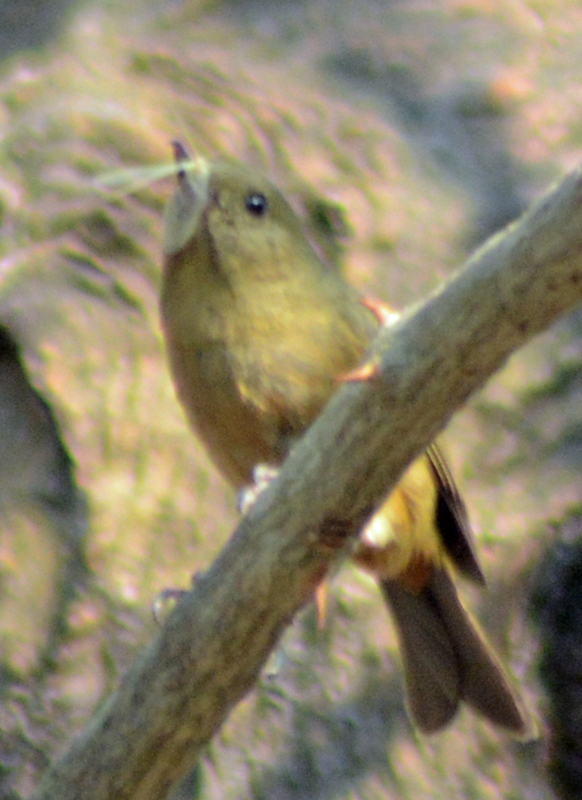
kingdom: Animalia
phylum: Chordata
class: Aves
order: Passeriformes
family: Thraupidae
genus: Diglossa
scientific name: Diglossa baritula
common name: Cinnamon-bellied flowerpiercer
